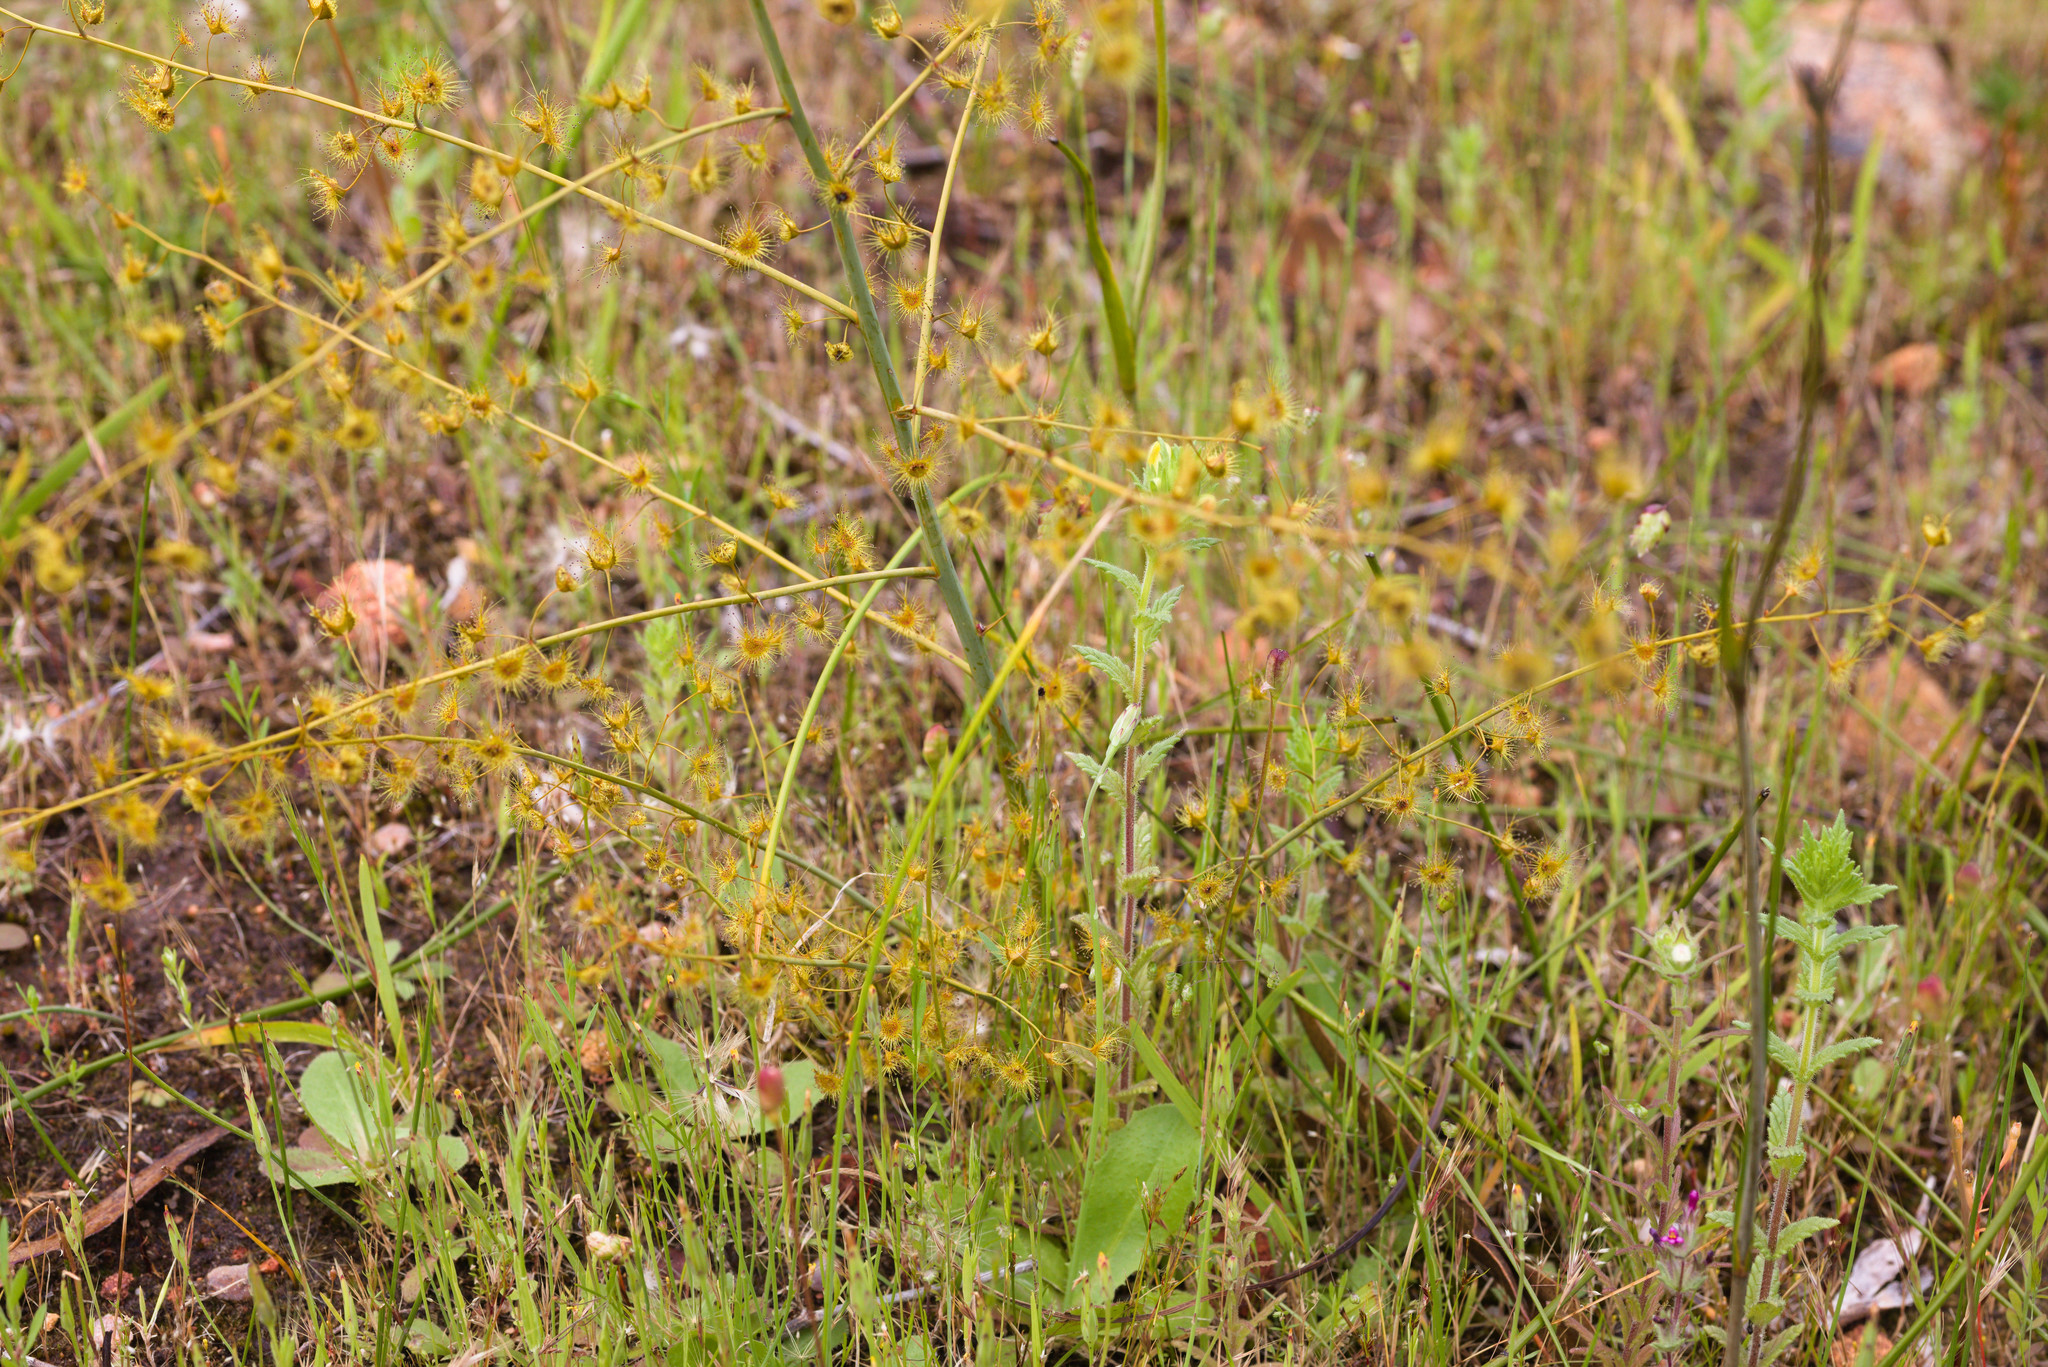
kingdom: Plantae
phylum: Tracheophyta
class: Magnoliopsida
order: Caryophyllales
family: Droseraceae
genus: Drosera
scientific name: Drosera gigantea
